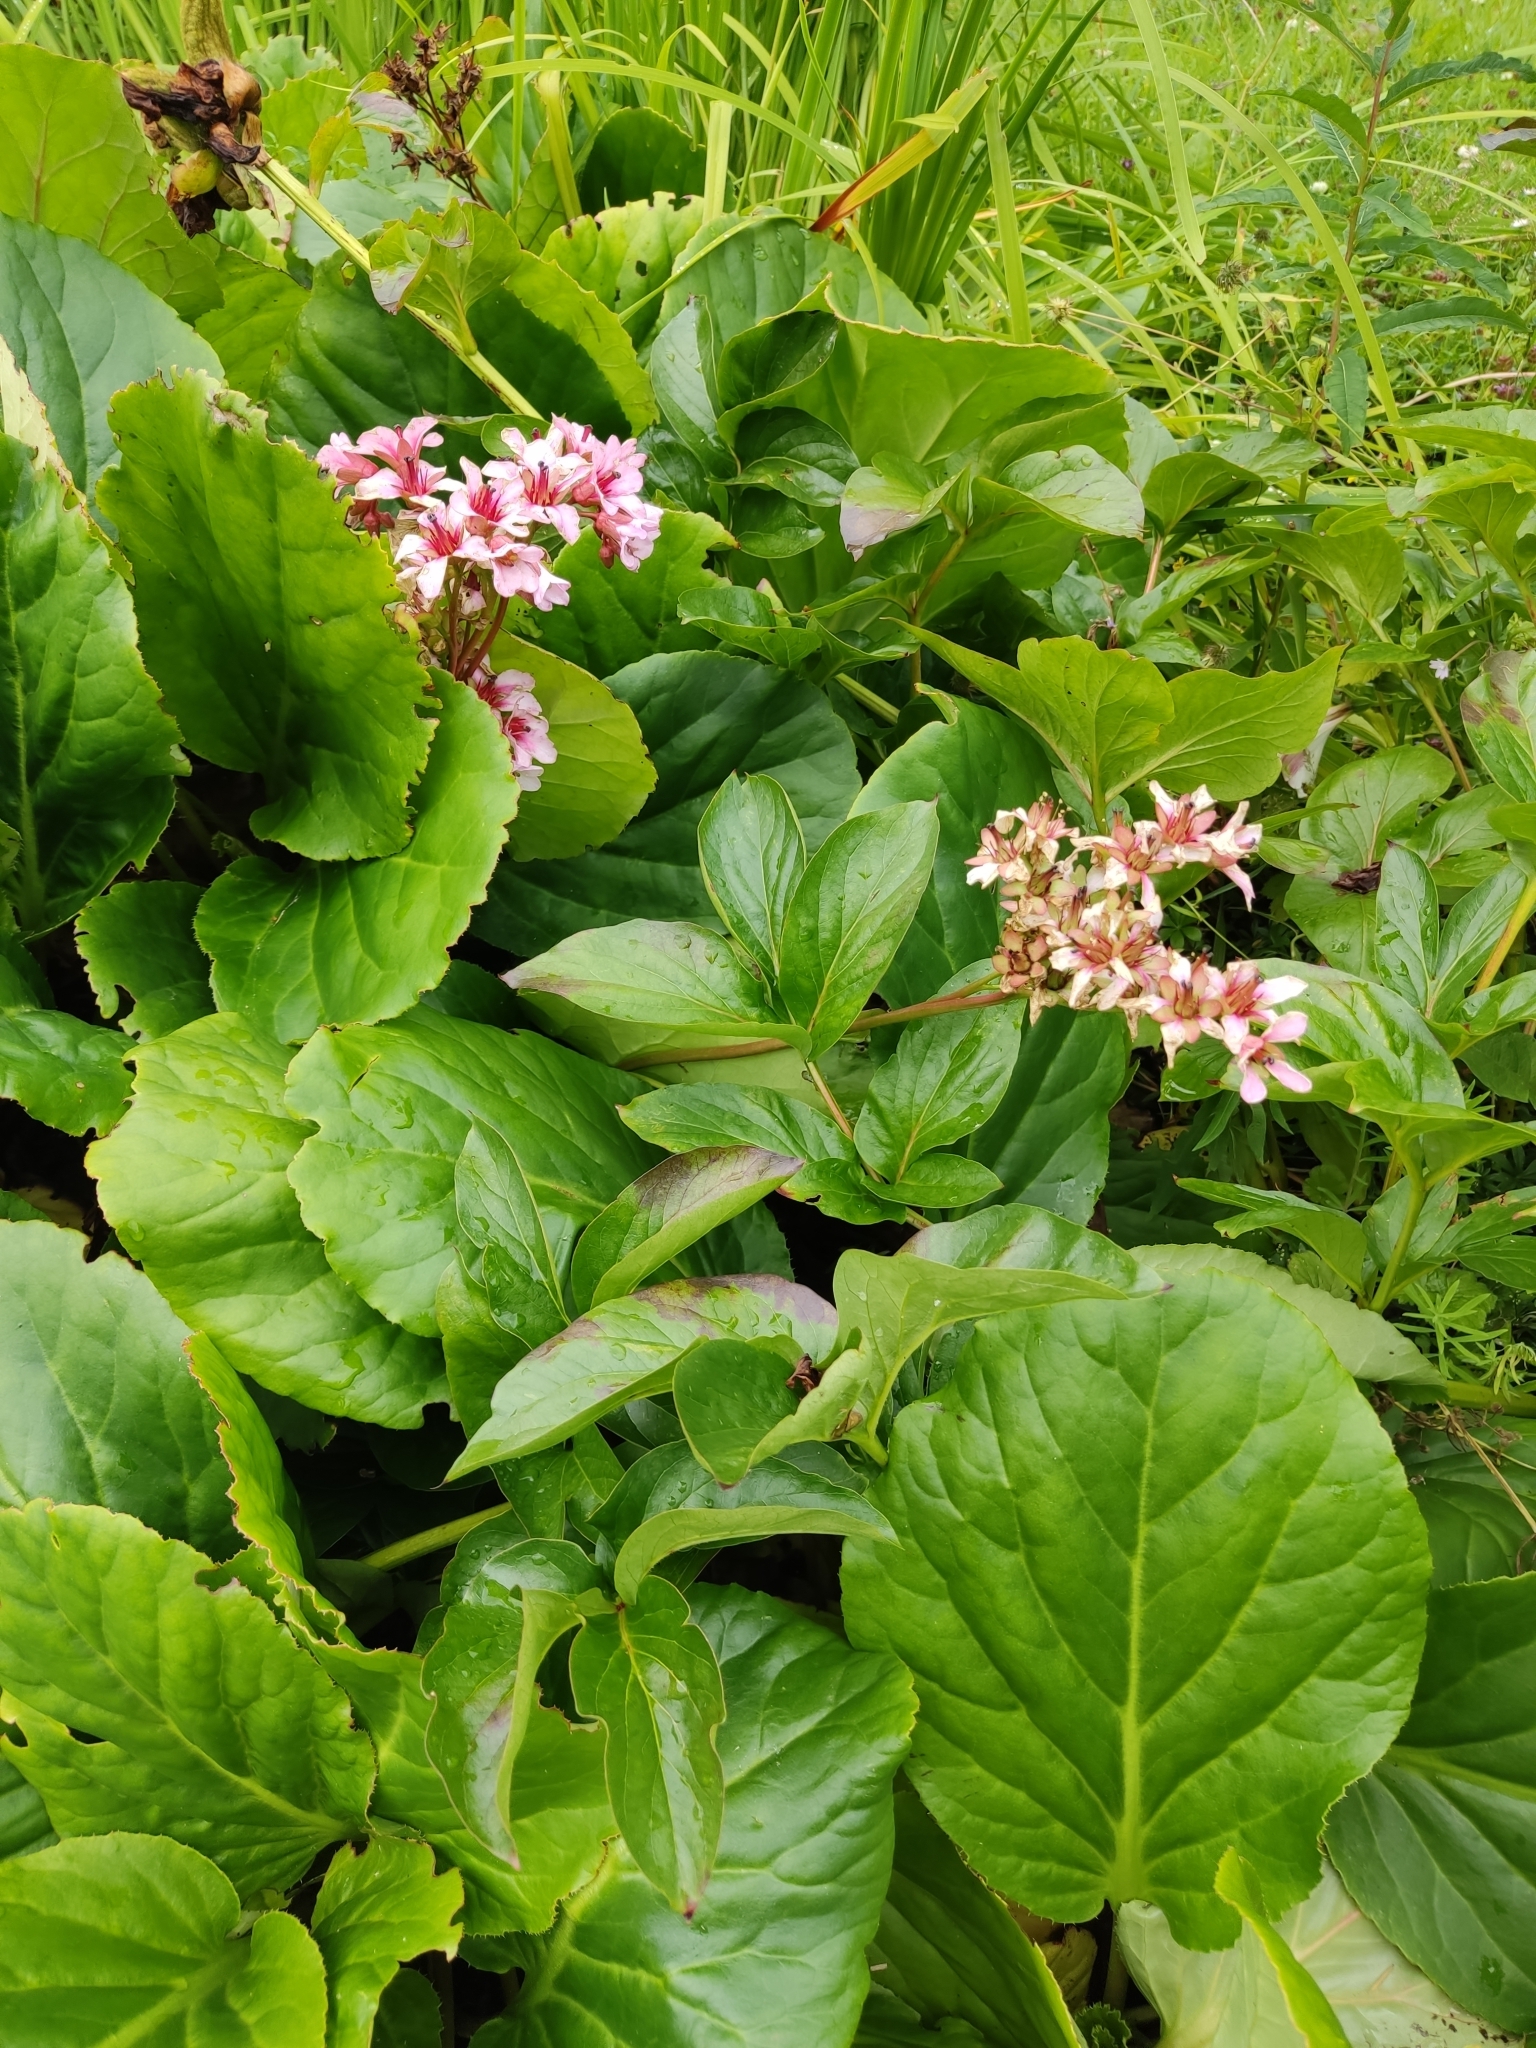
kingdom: Plantae
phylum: Tracheophyta
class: Magnoliopsida
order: Saxifragales
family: Saxifragaceae
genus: Bergenia
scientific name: Bergenia crassifolia
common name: Elephant-ears
